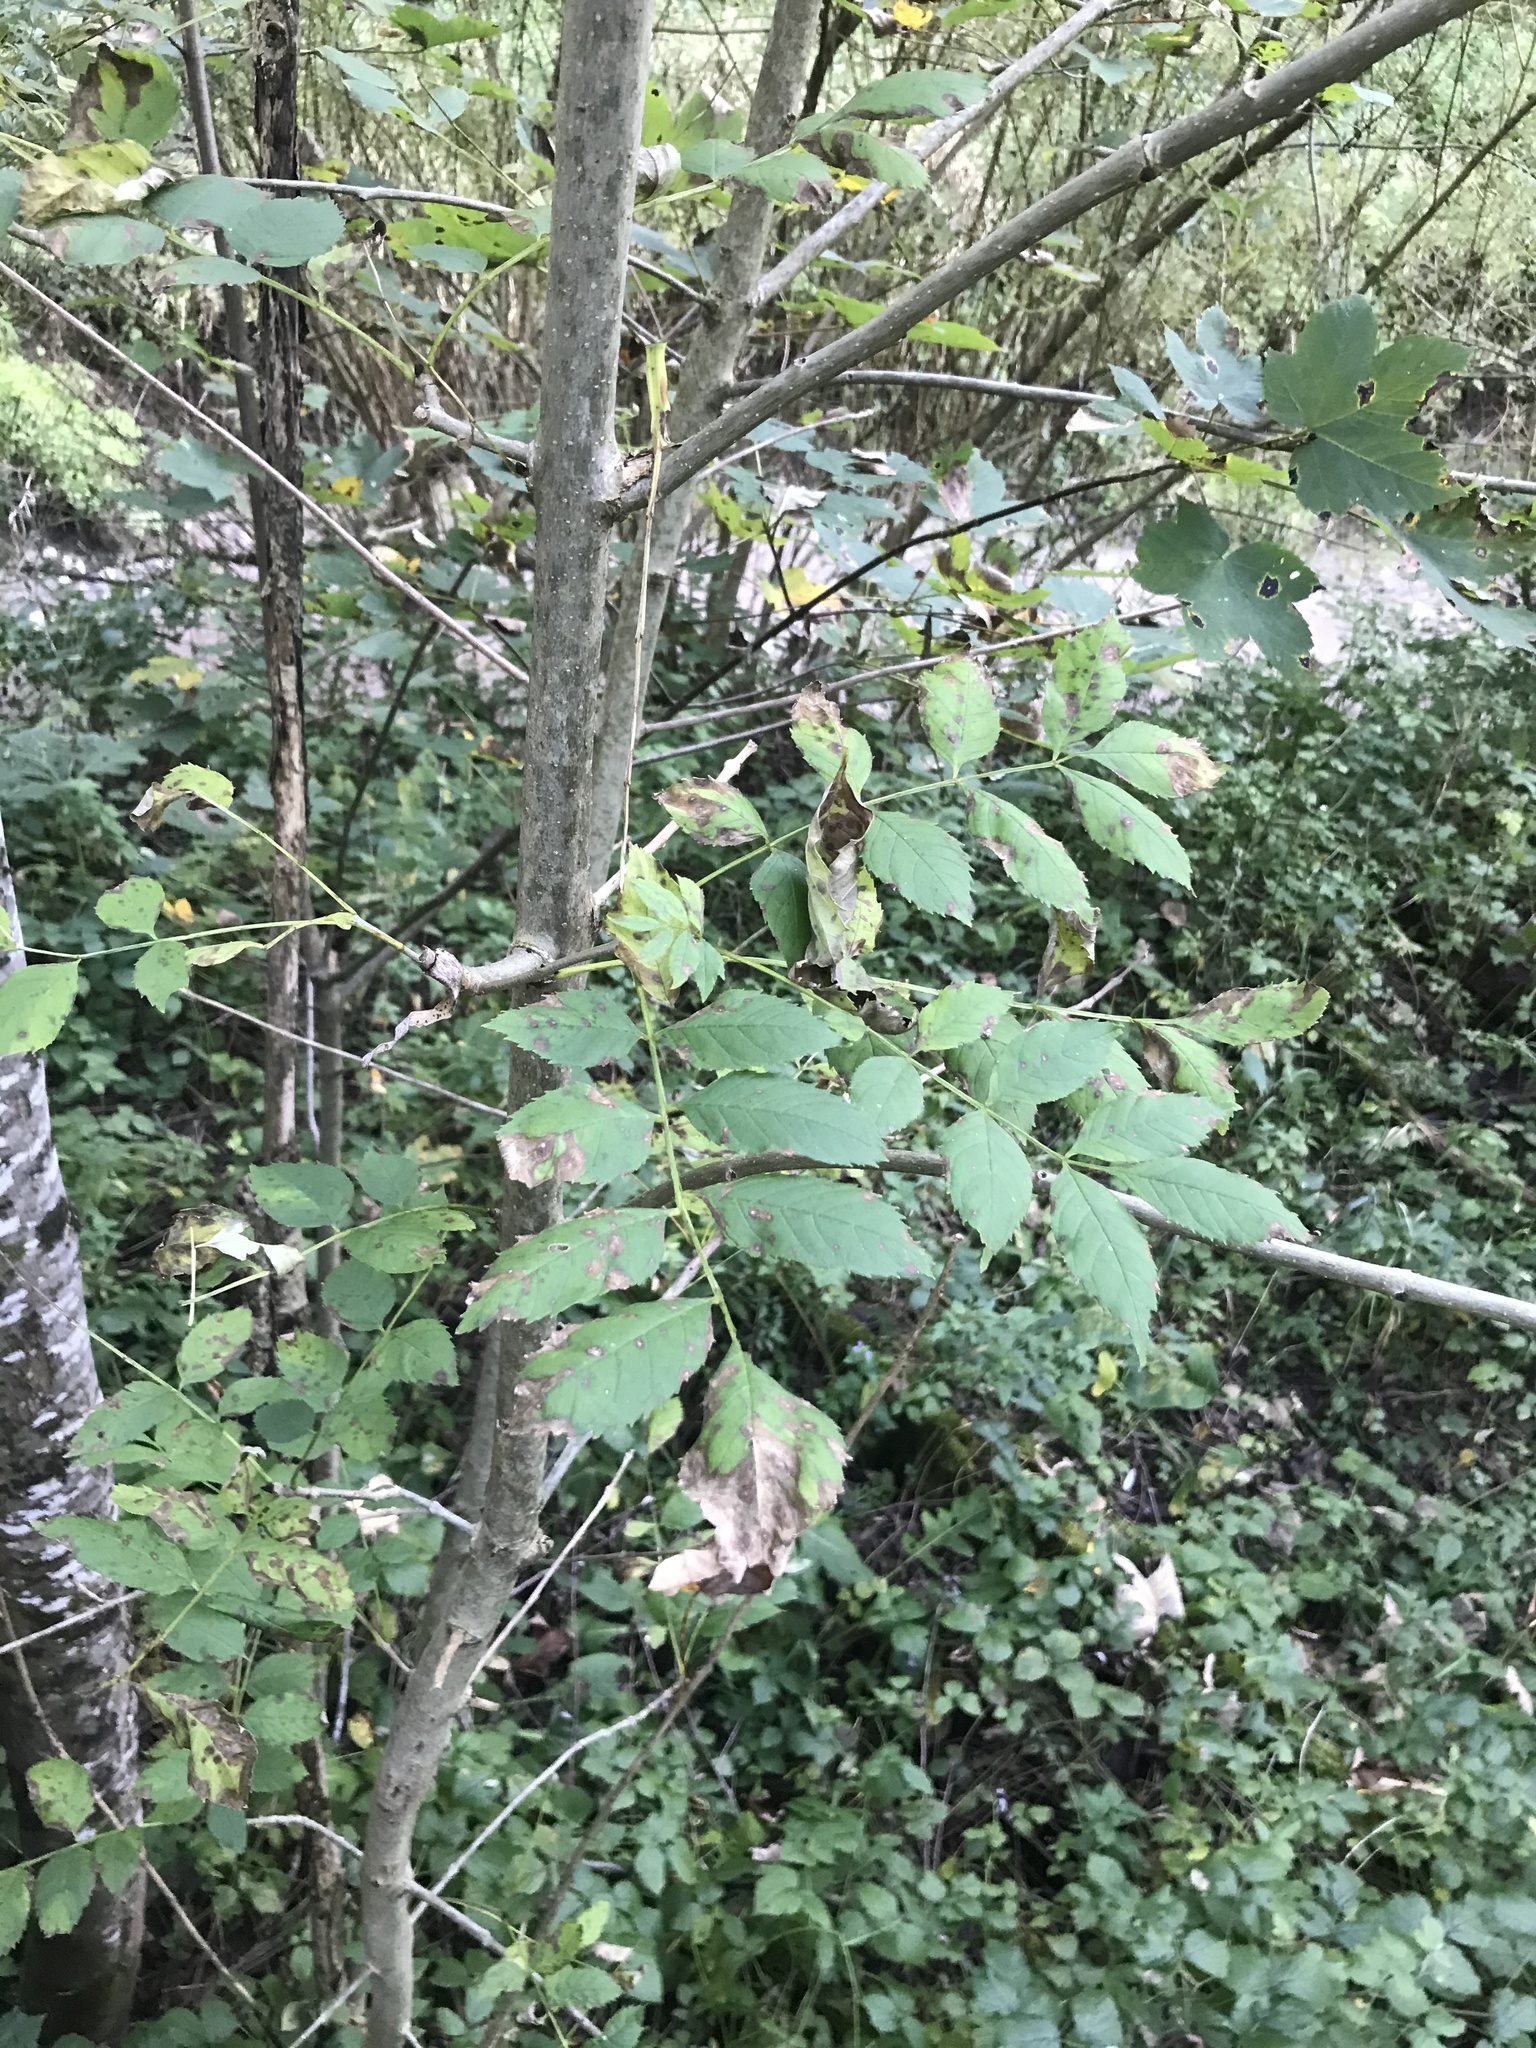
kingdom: Plantae
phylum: Tracheophyta
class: Magnoliopsida
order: Lamiales
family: Oleaceae
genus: Fraxinus
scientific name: Fraxinus excelsior
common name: European ash
